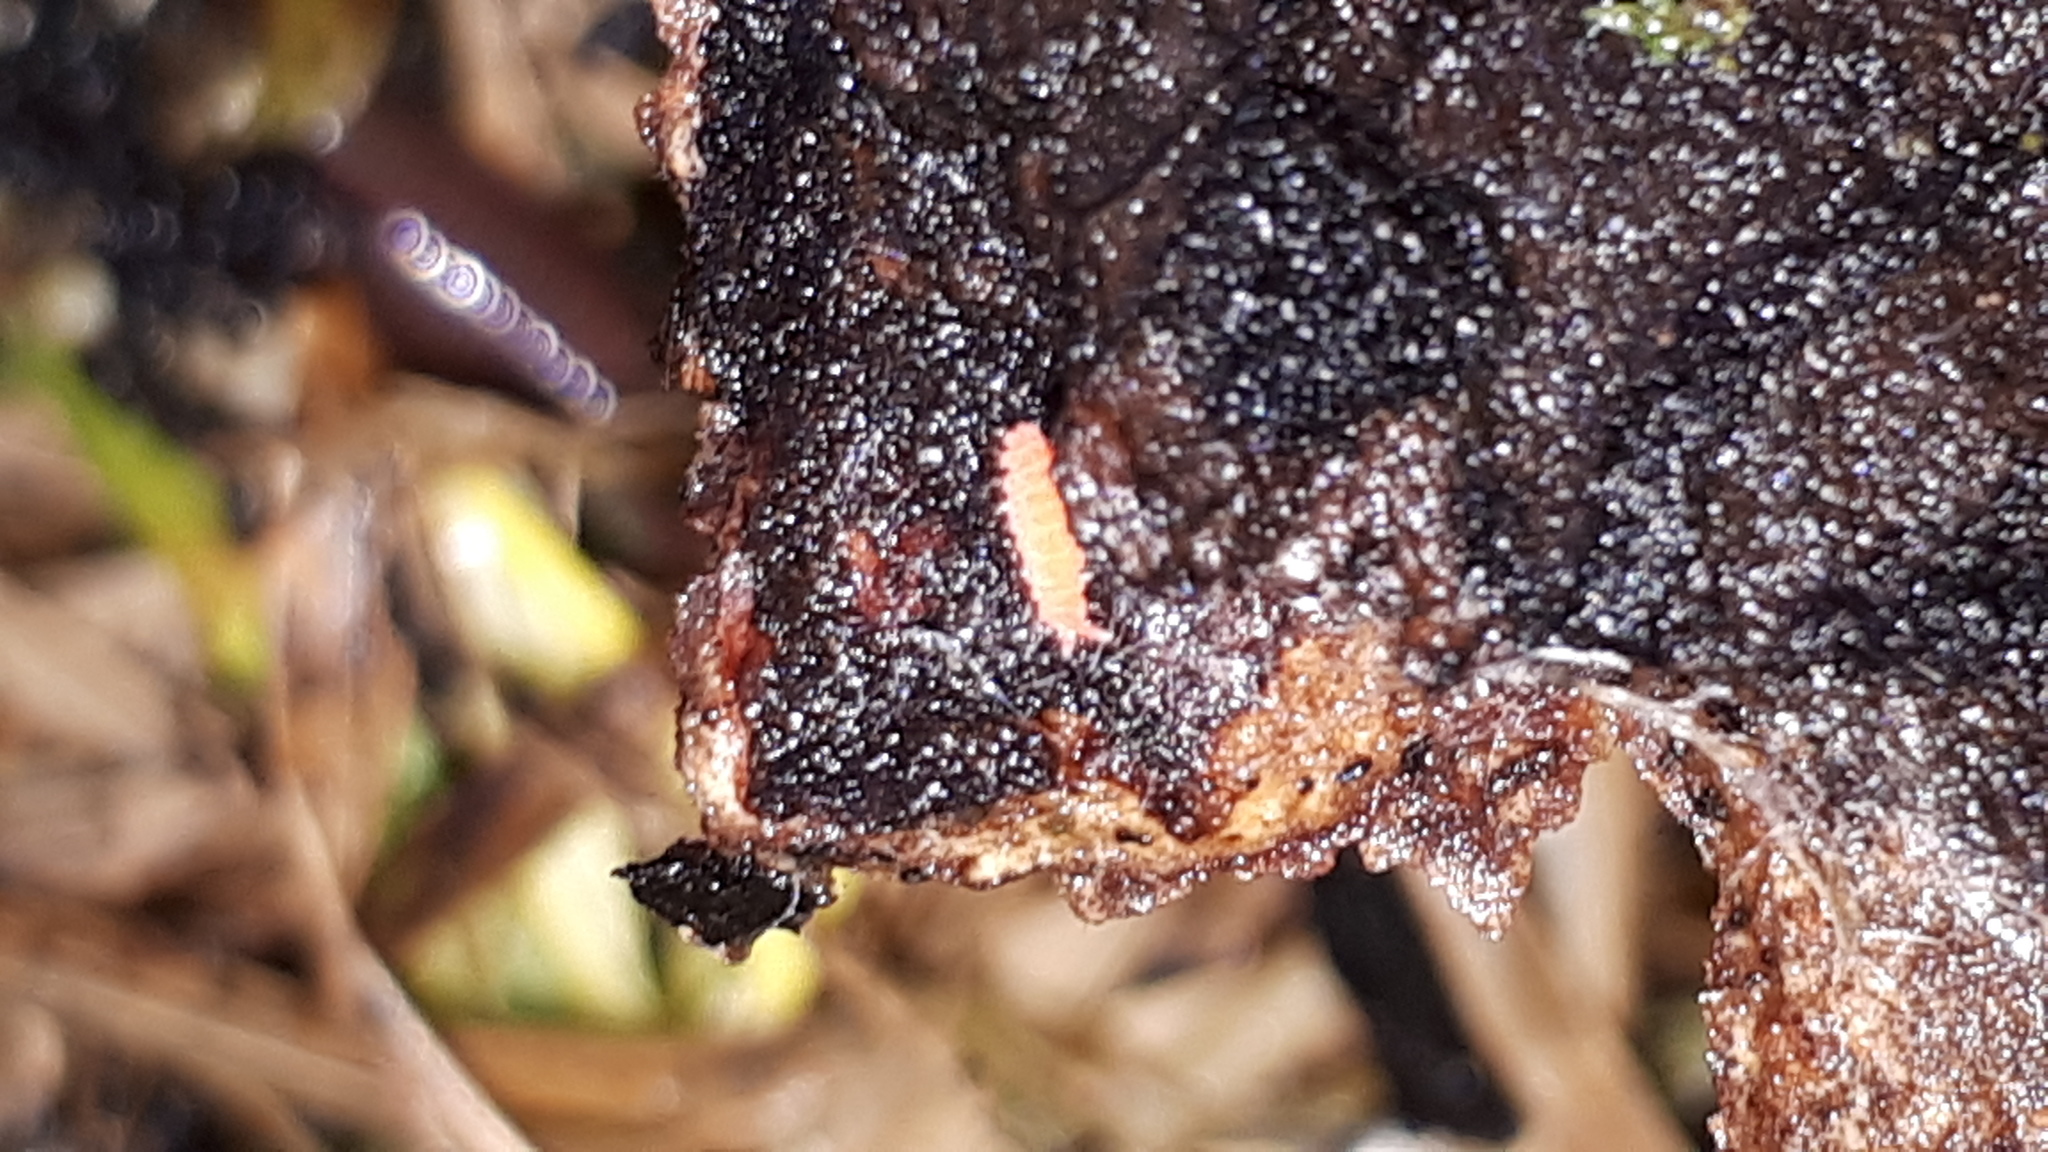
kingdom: Animalia
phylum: Arthropoda
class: Collembola
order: Poduromorpha
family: Neanuridae
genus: Bilobella
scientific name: Bilobella braunerae
